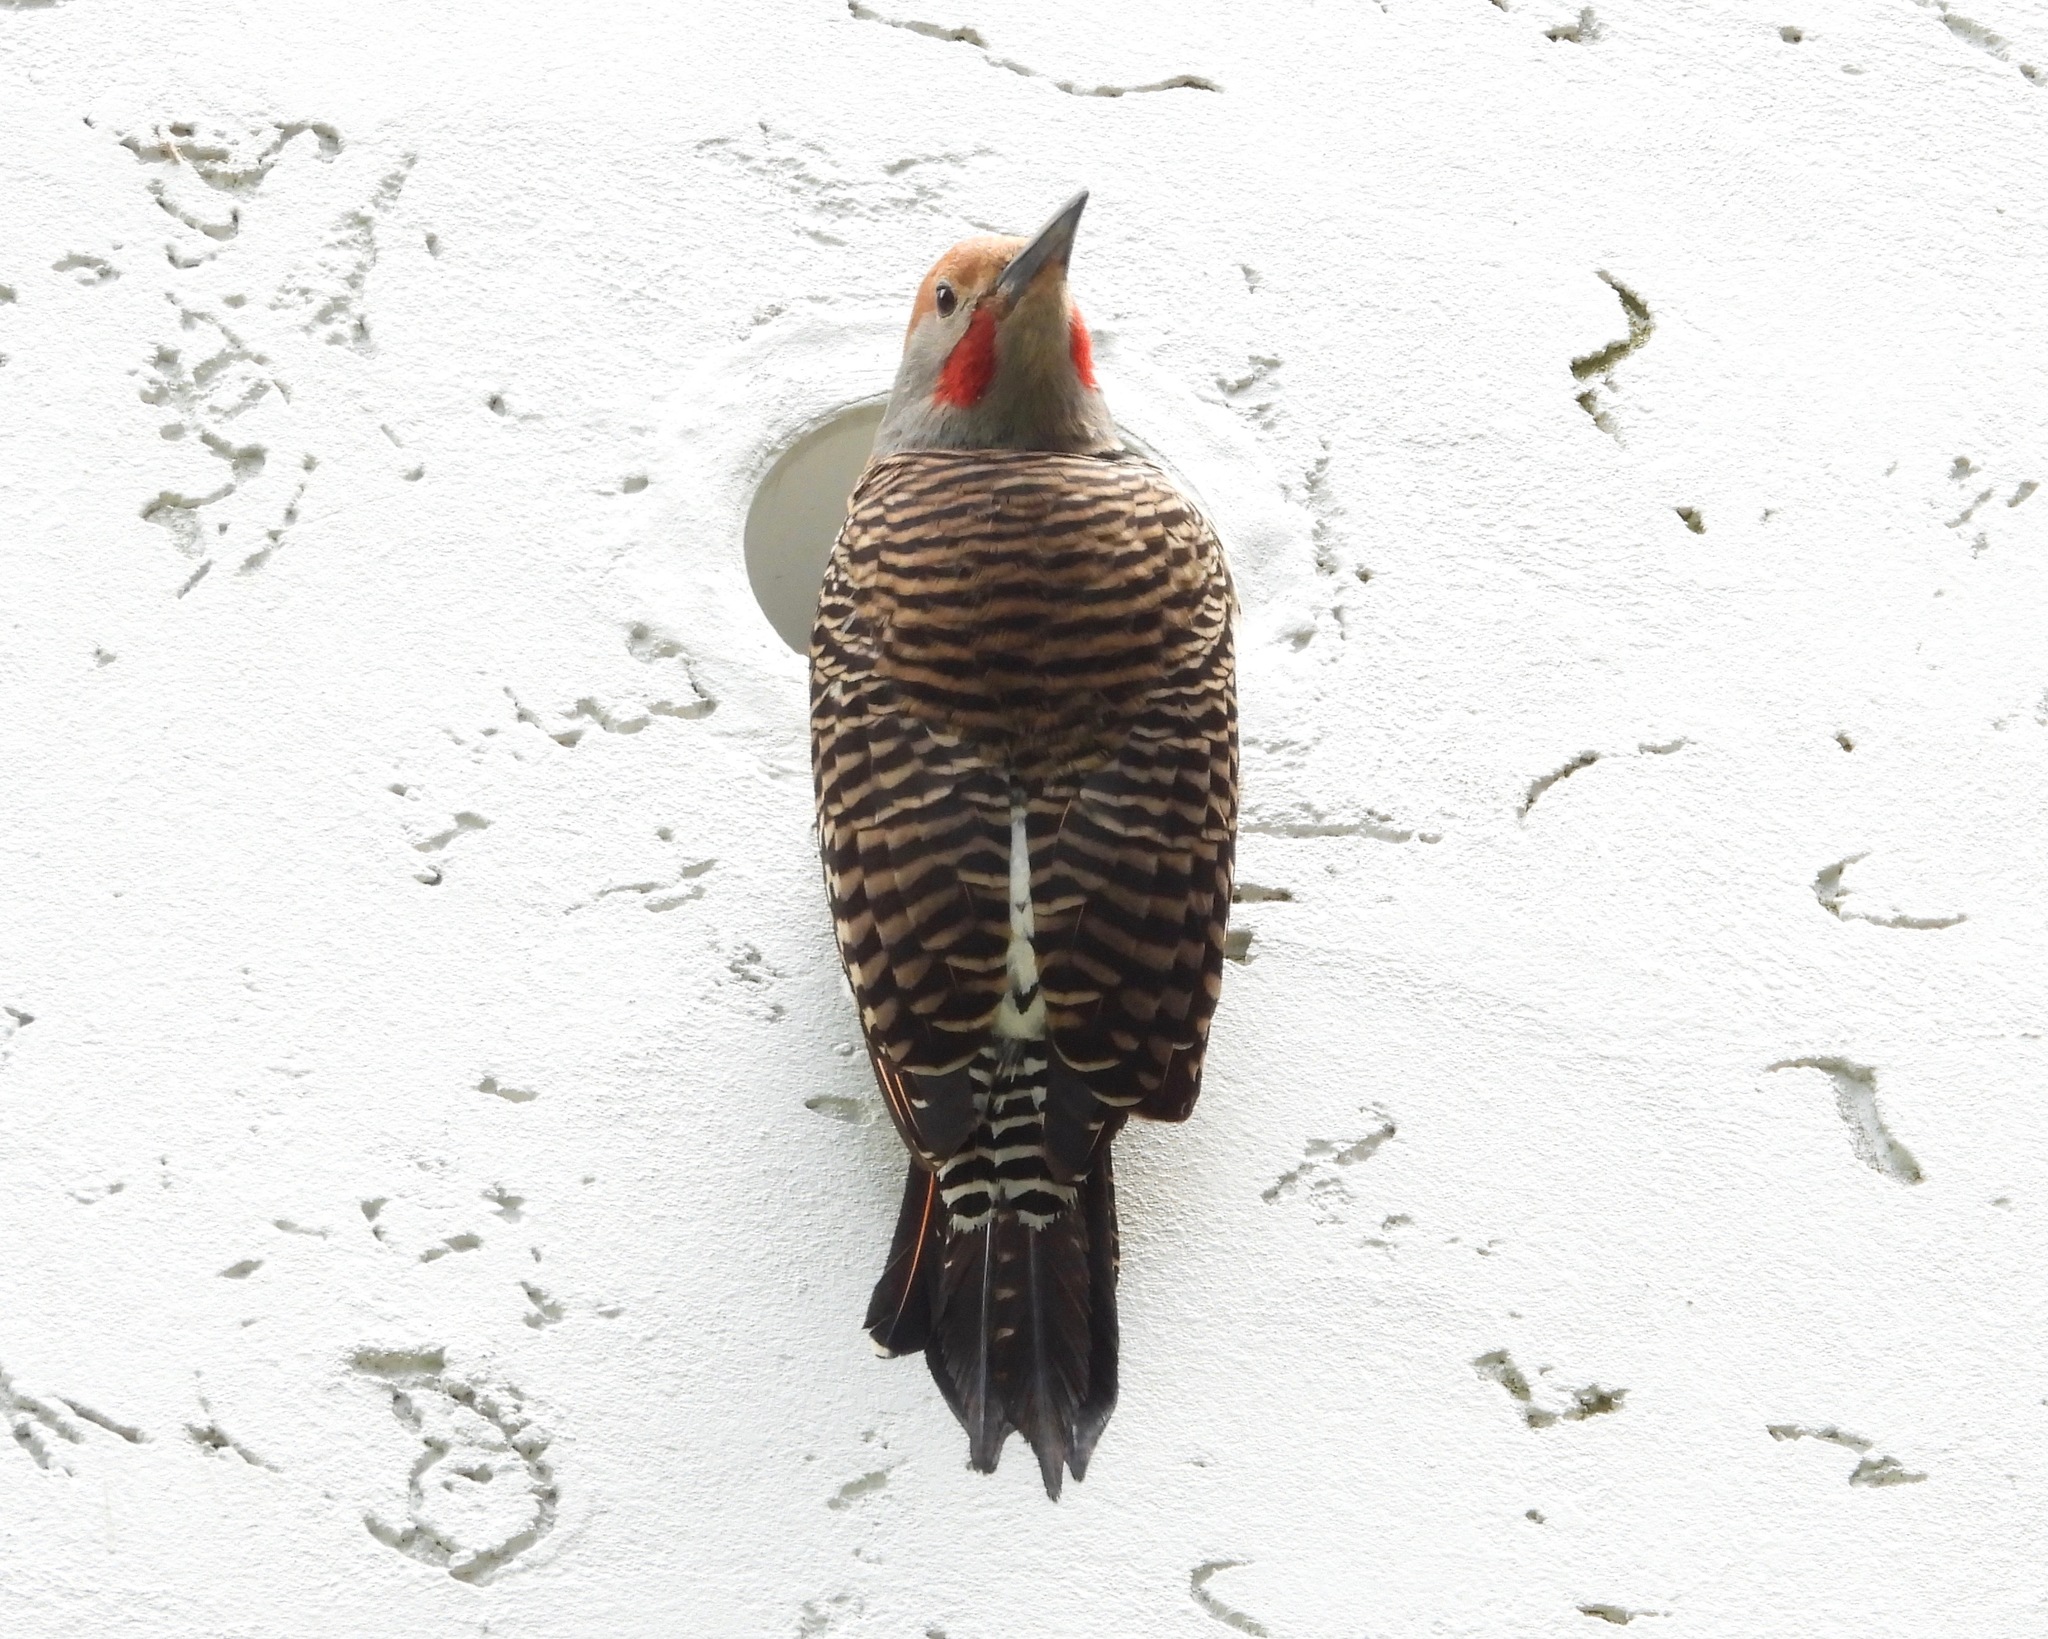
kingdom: Animalia
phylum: Chordata
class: Aves
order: Piciformes
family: Picidae
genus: Colaptes
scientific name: Colaptes auratus
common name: Northern flicker
